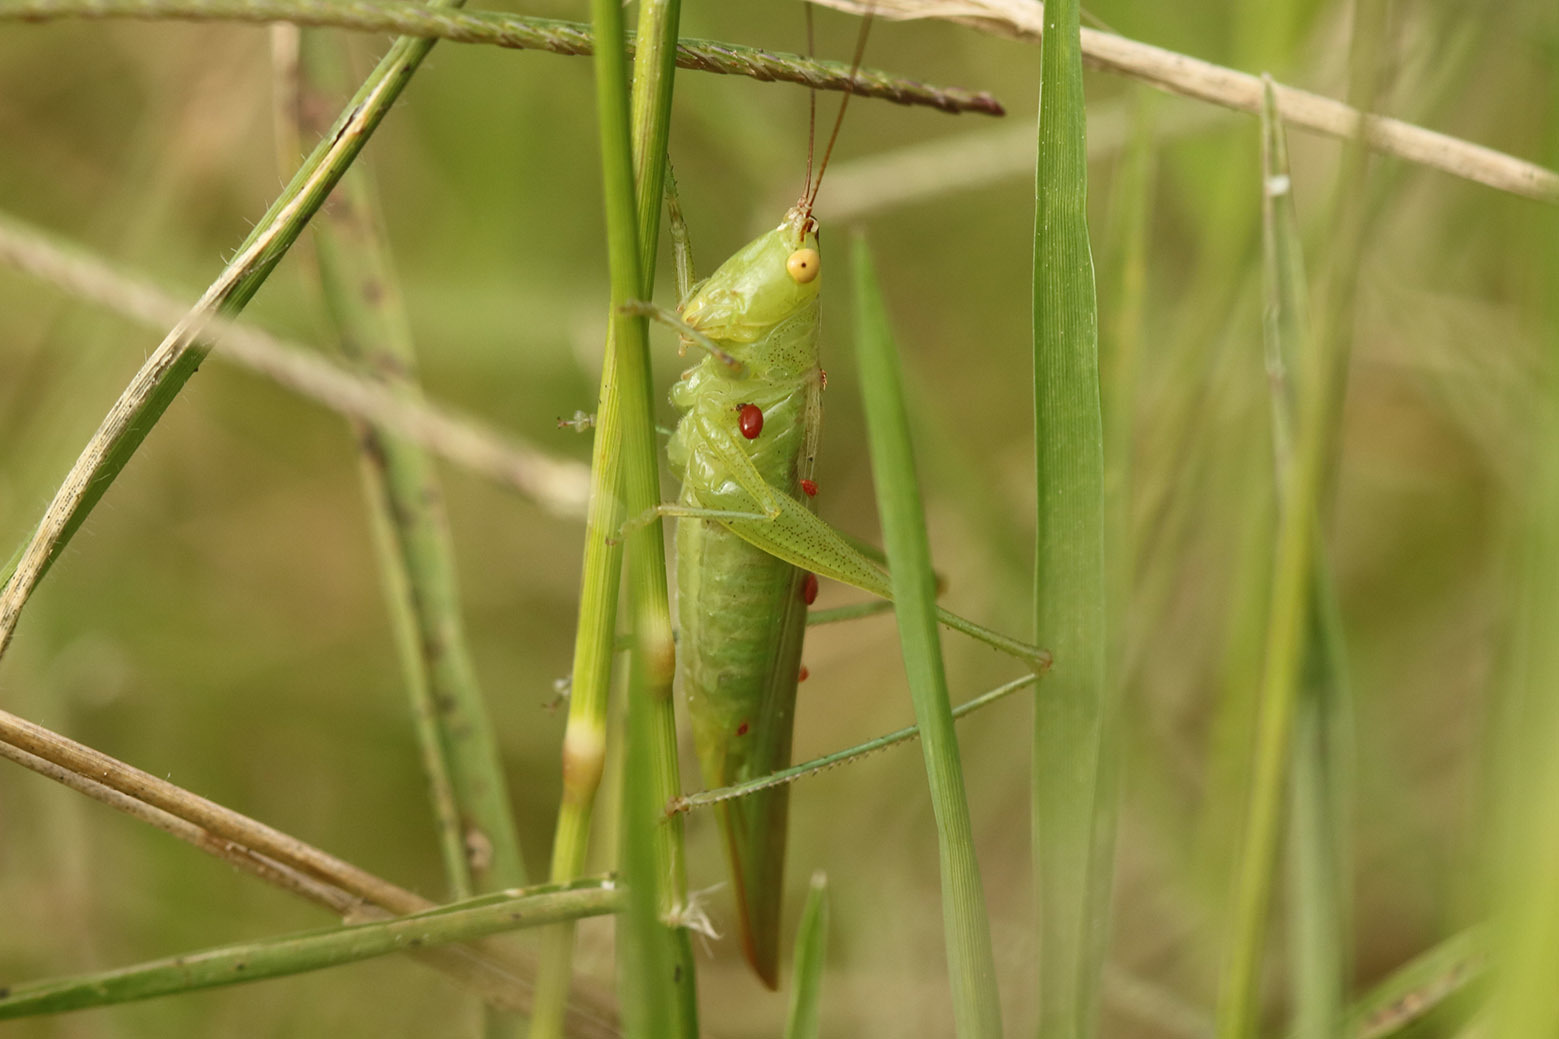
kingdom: Animalia
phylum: Arthropoda
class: Insecta
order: Orthoptera
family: Tettigoniidae
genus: Conocephalus
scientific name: Conocephalus longipes
